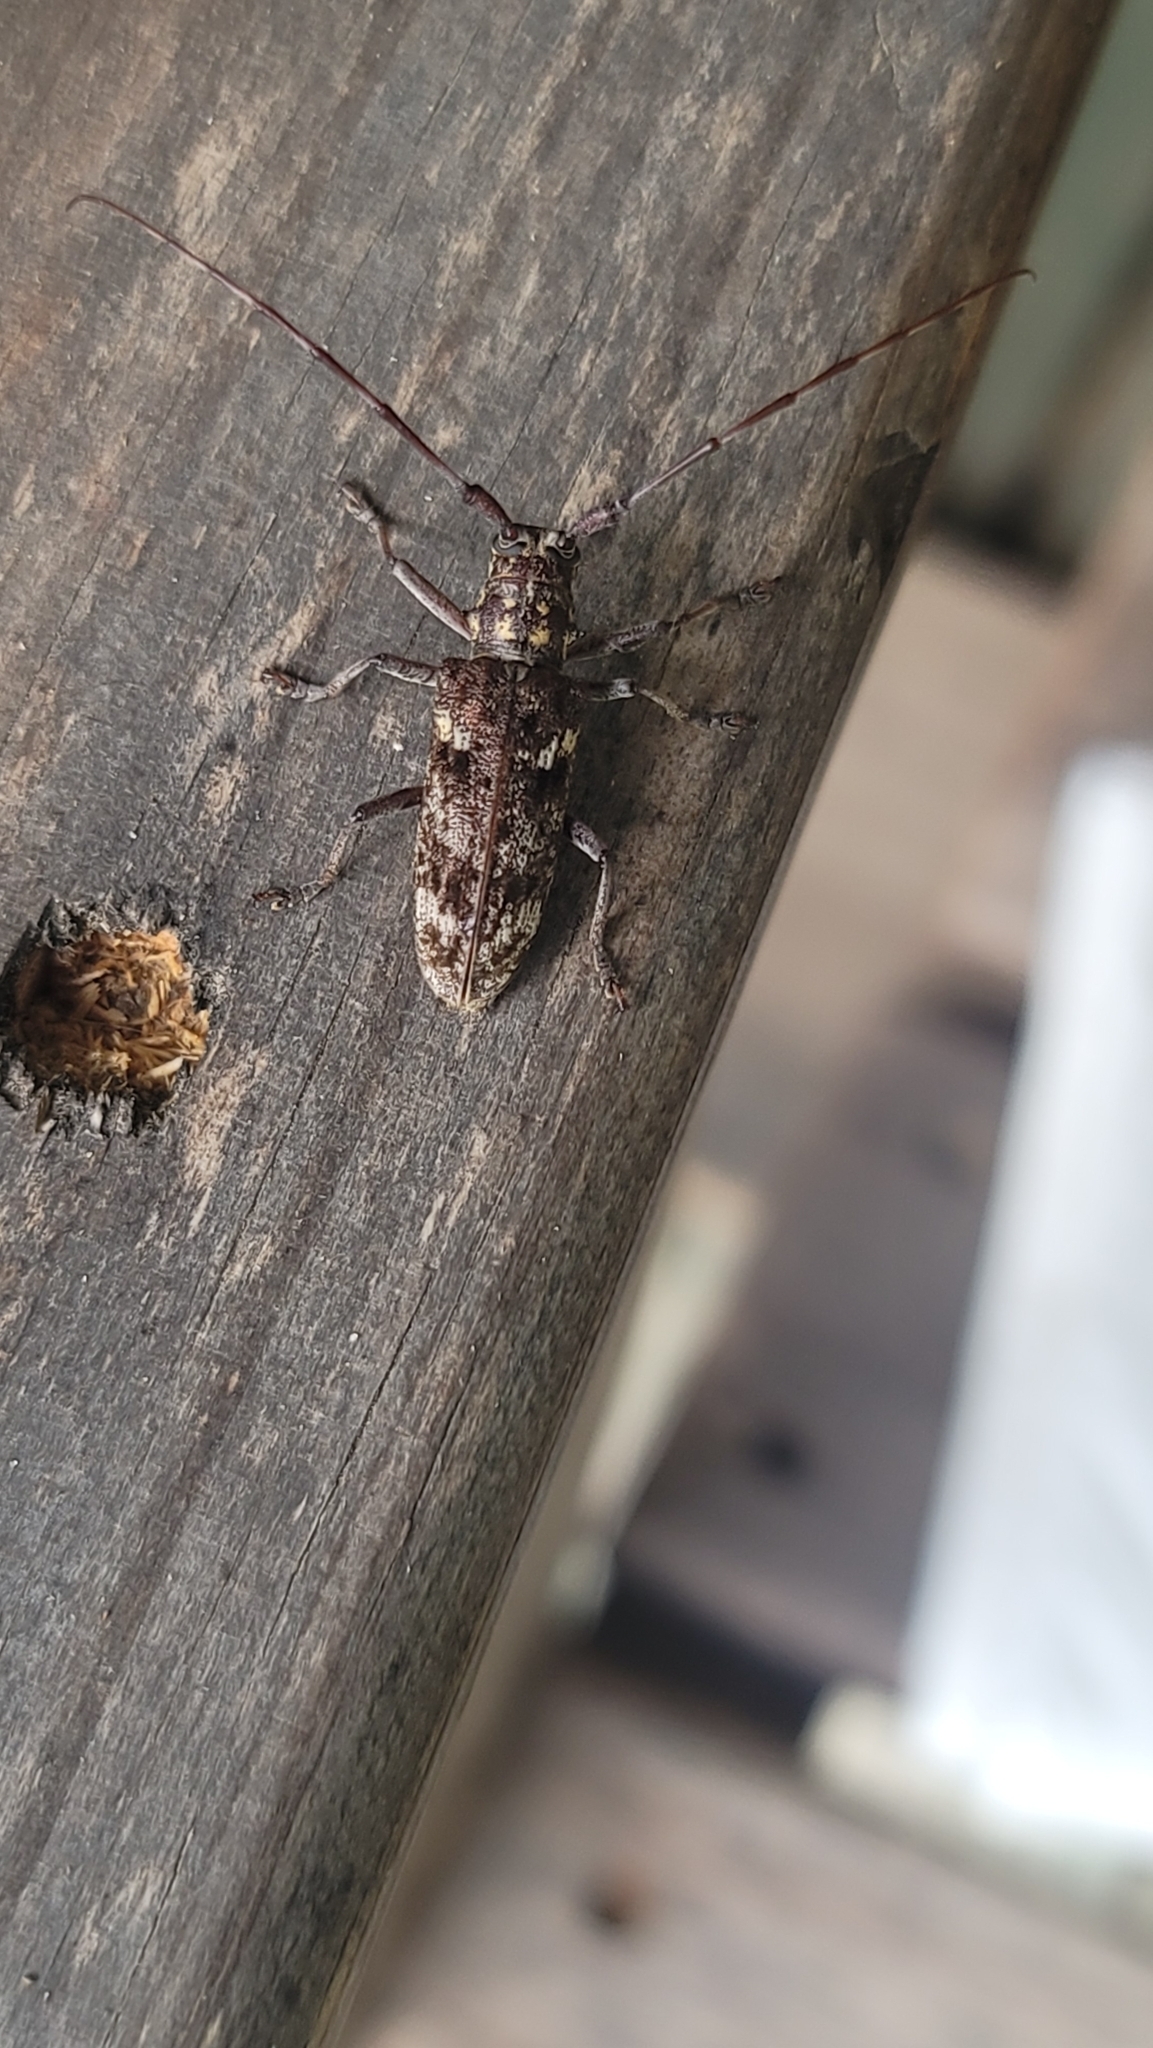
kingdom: Animalia
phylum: Arthropoda
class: Insecta
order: Coleoptera
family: Cerambycidae
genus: Monochamus
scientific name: Monochamus carolinensis
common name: Carolina pine sawyer
